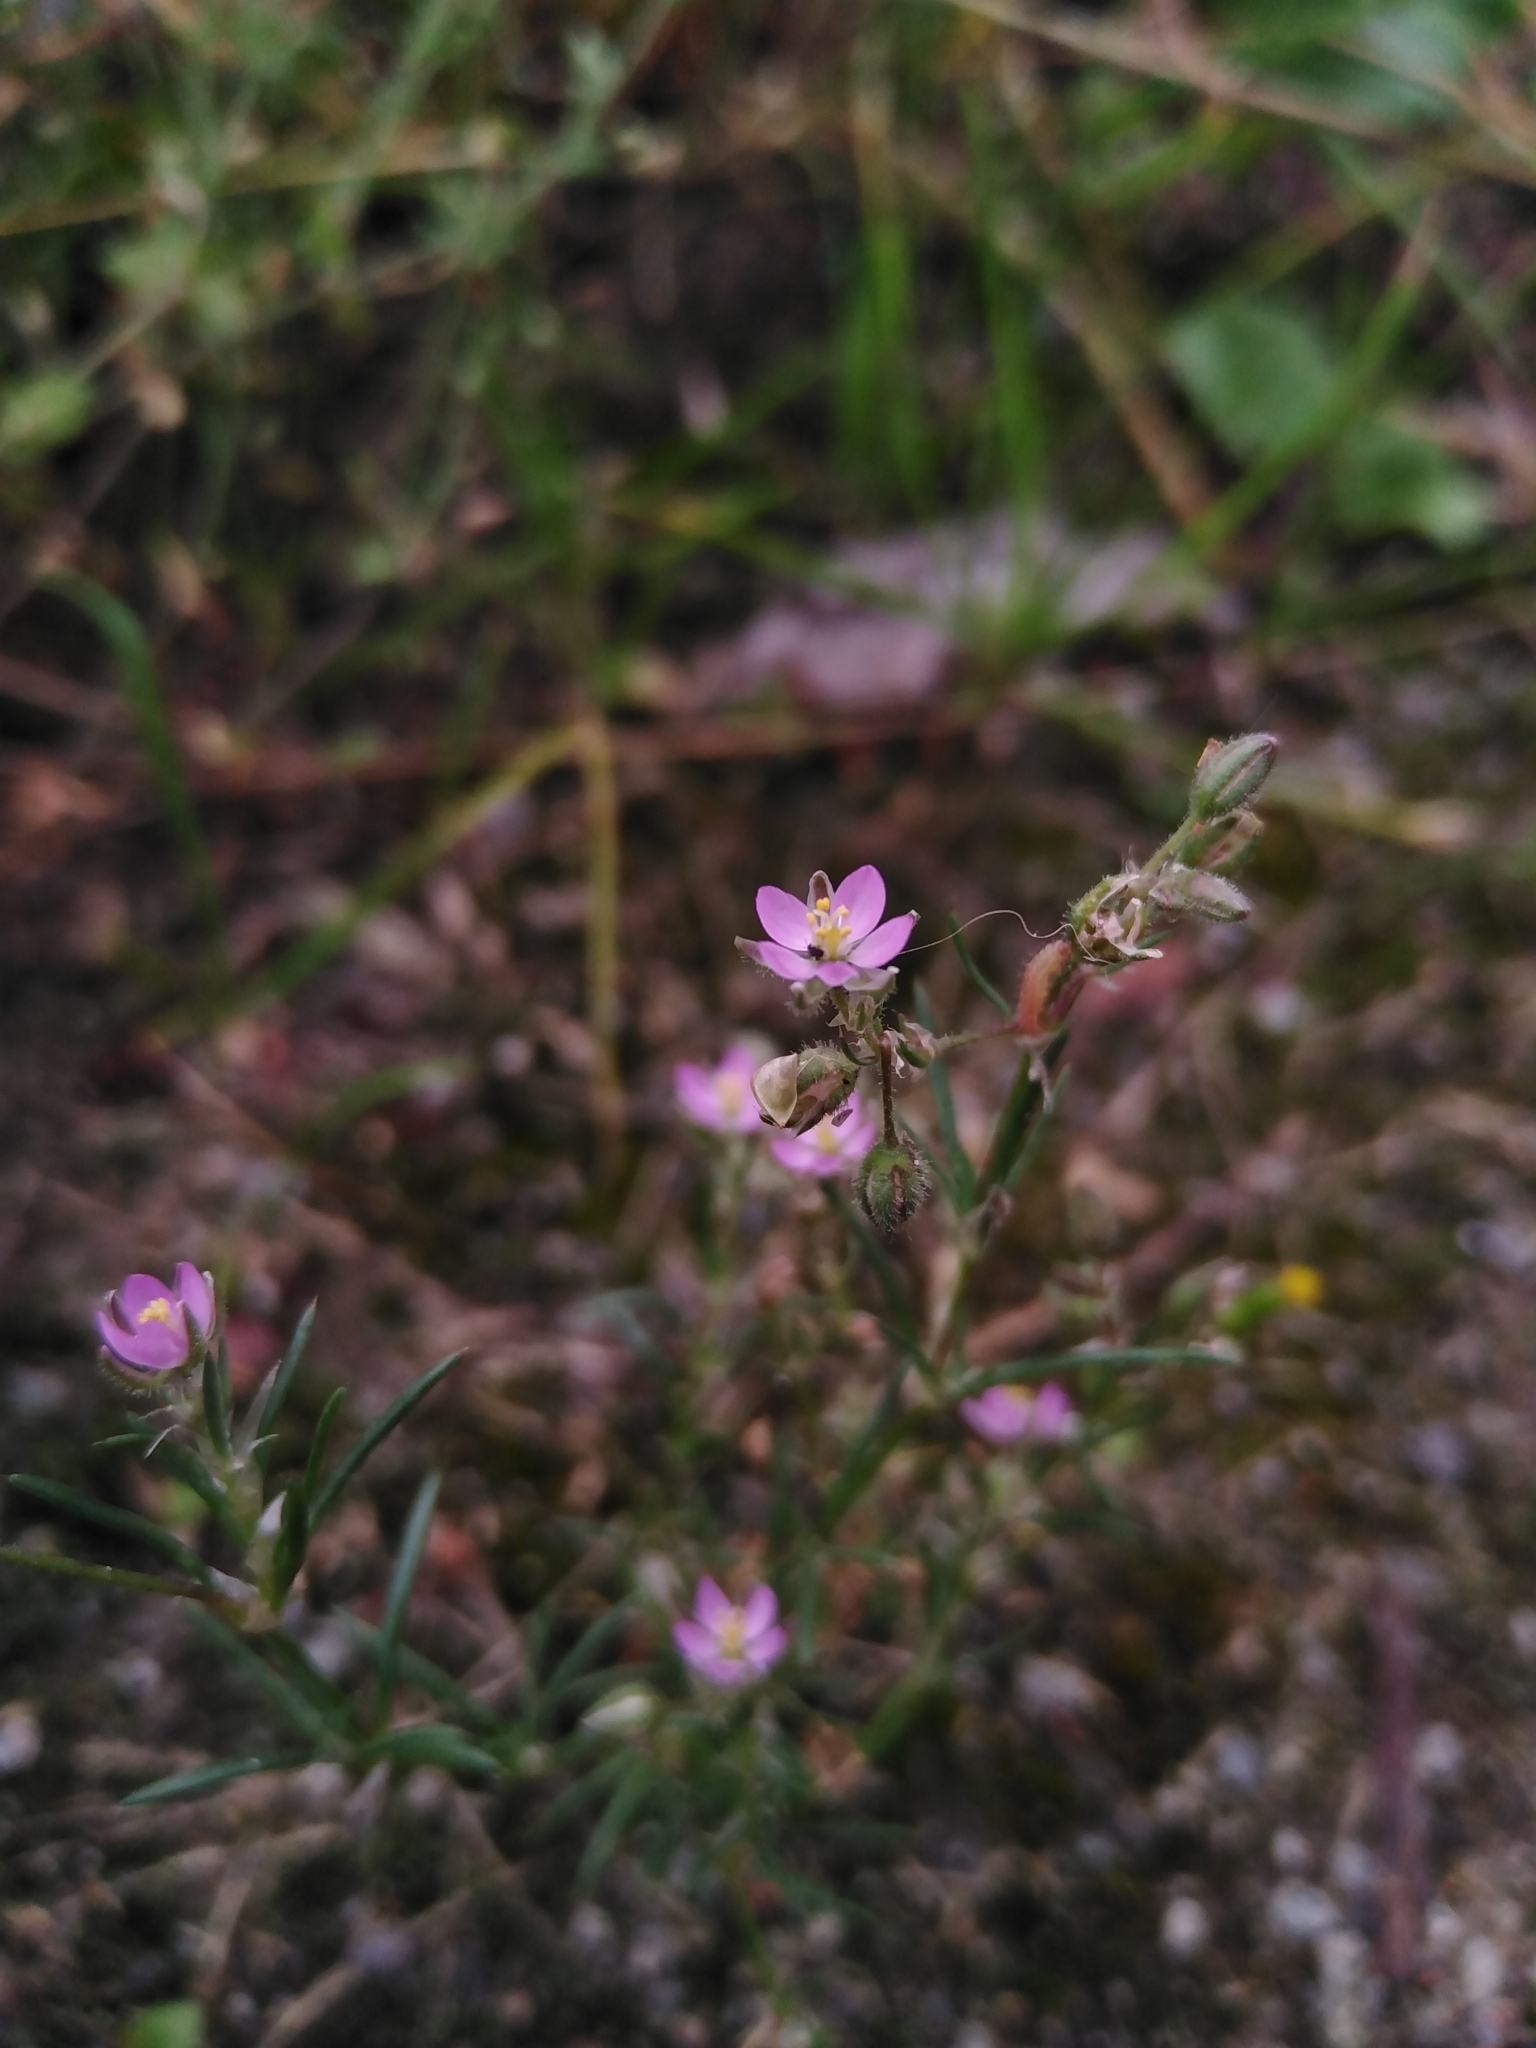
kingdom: Plantae
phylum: Tracheophyta
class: Magnoliopsida
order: Caryophyllales
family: Caryophyllaceae
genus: Spergularia
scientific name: Spergularia rubra
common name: Red sand-spurrey
